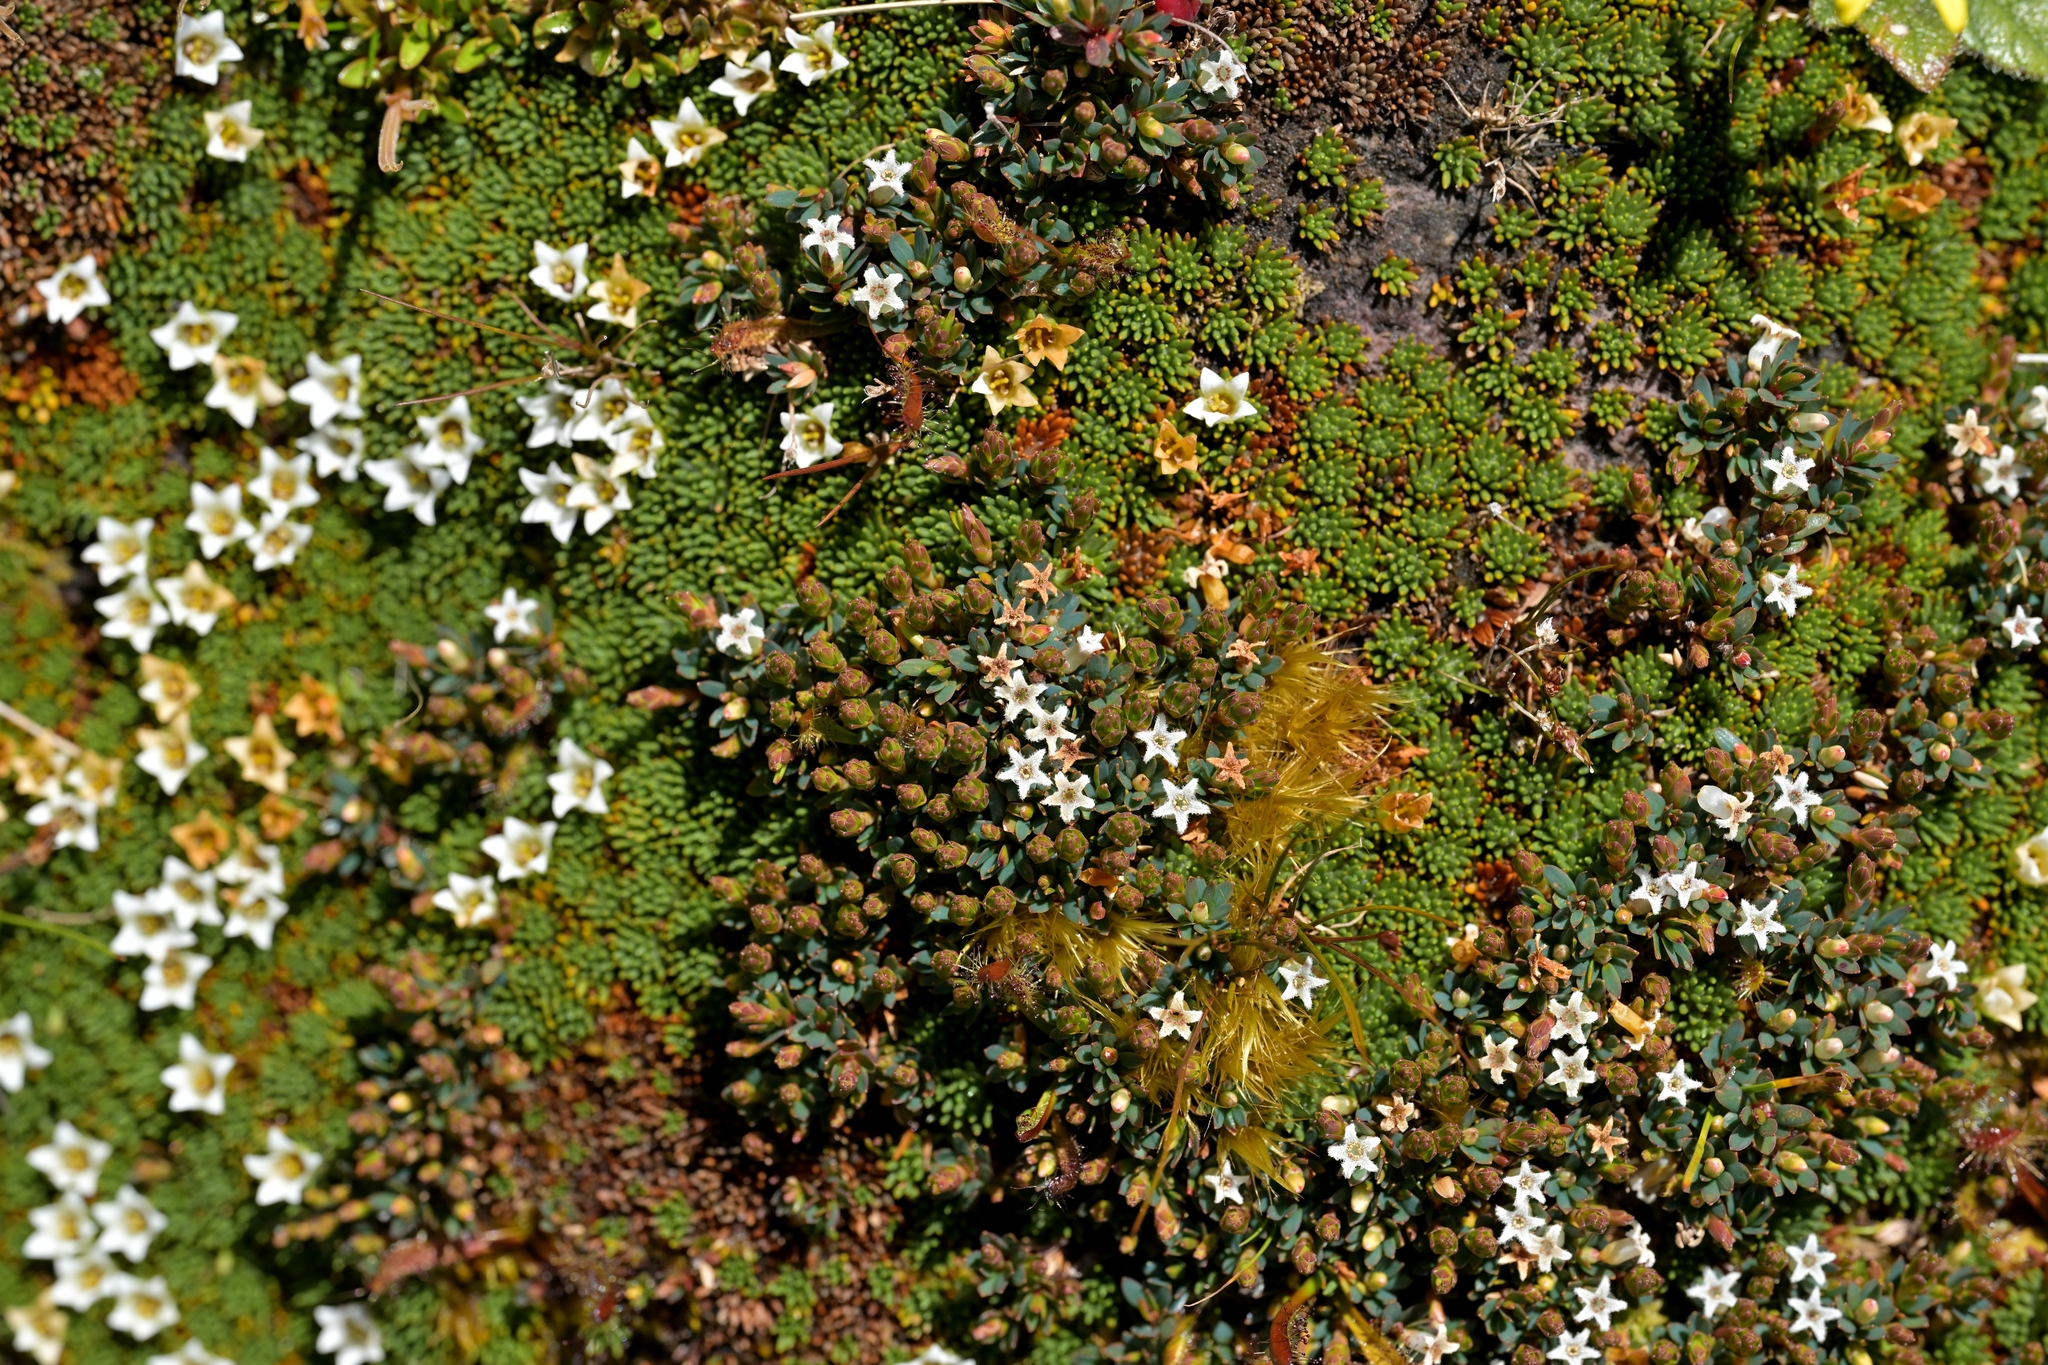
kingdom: Plantae
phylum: Tracheophyta
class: Magnoliopsida
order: Ericales
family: Ericaceae
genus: Pentachondra
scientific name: Pentachondra pumila
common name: Carpet-heath
